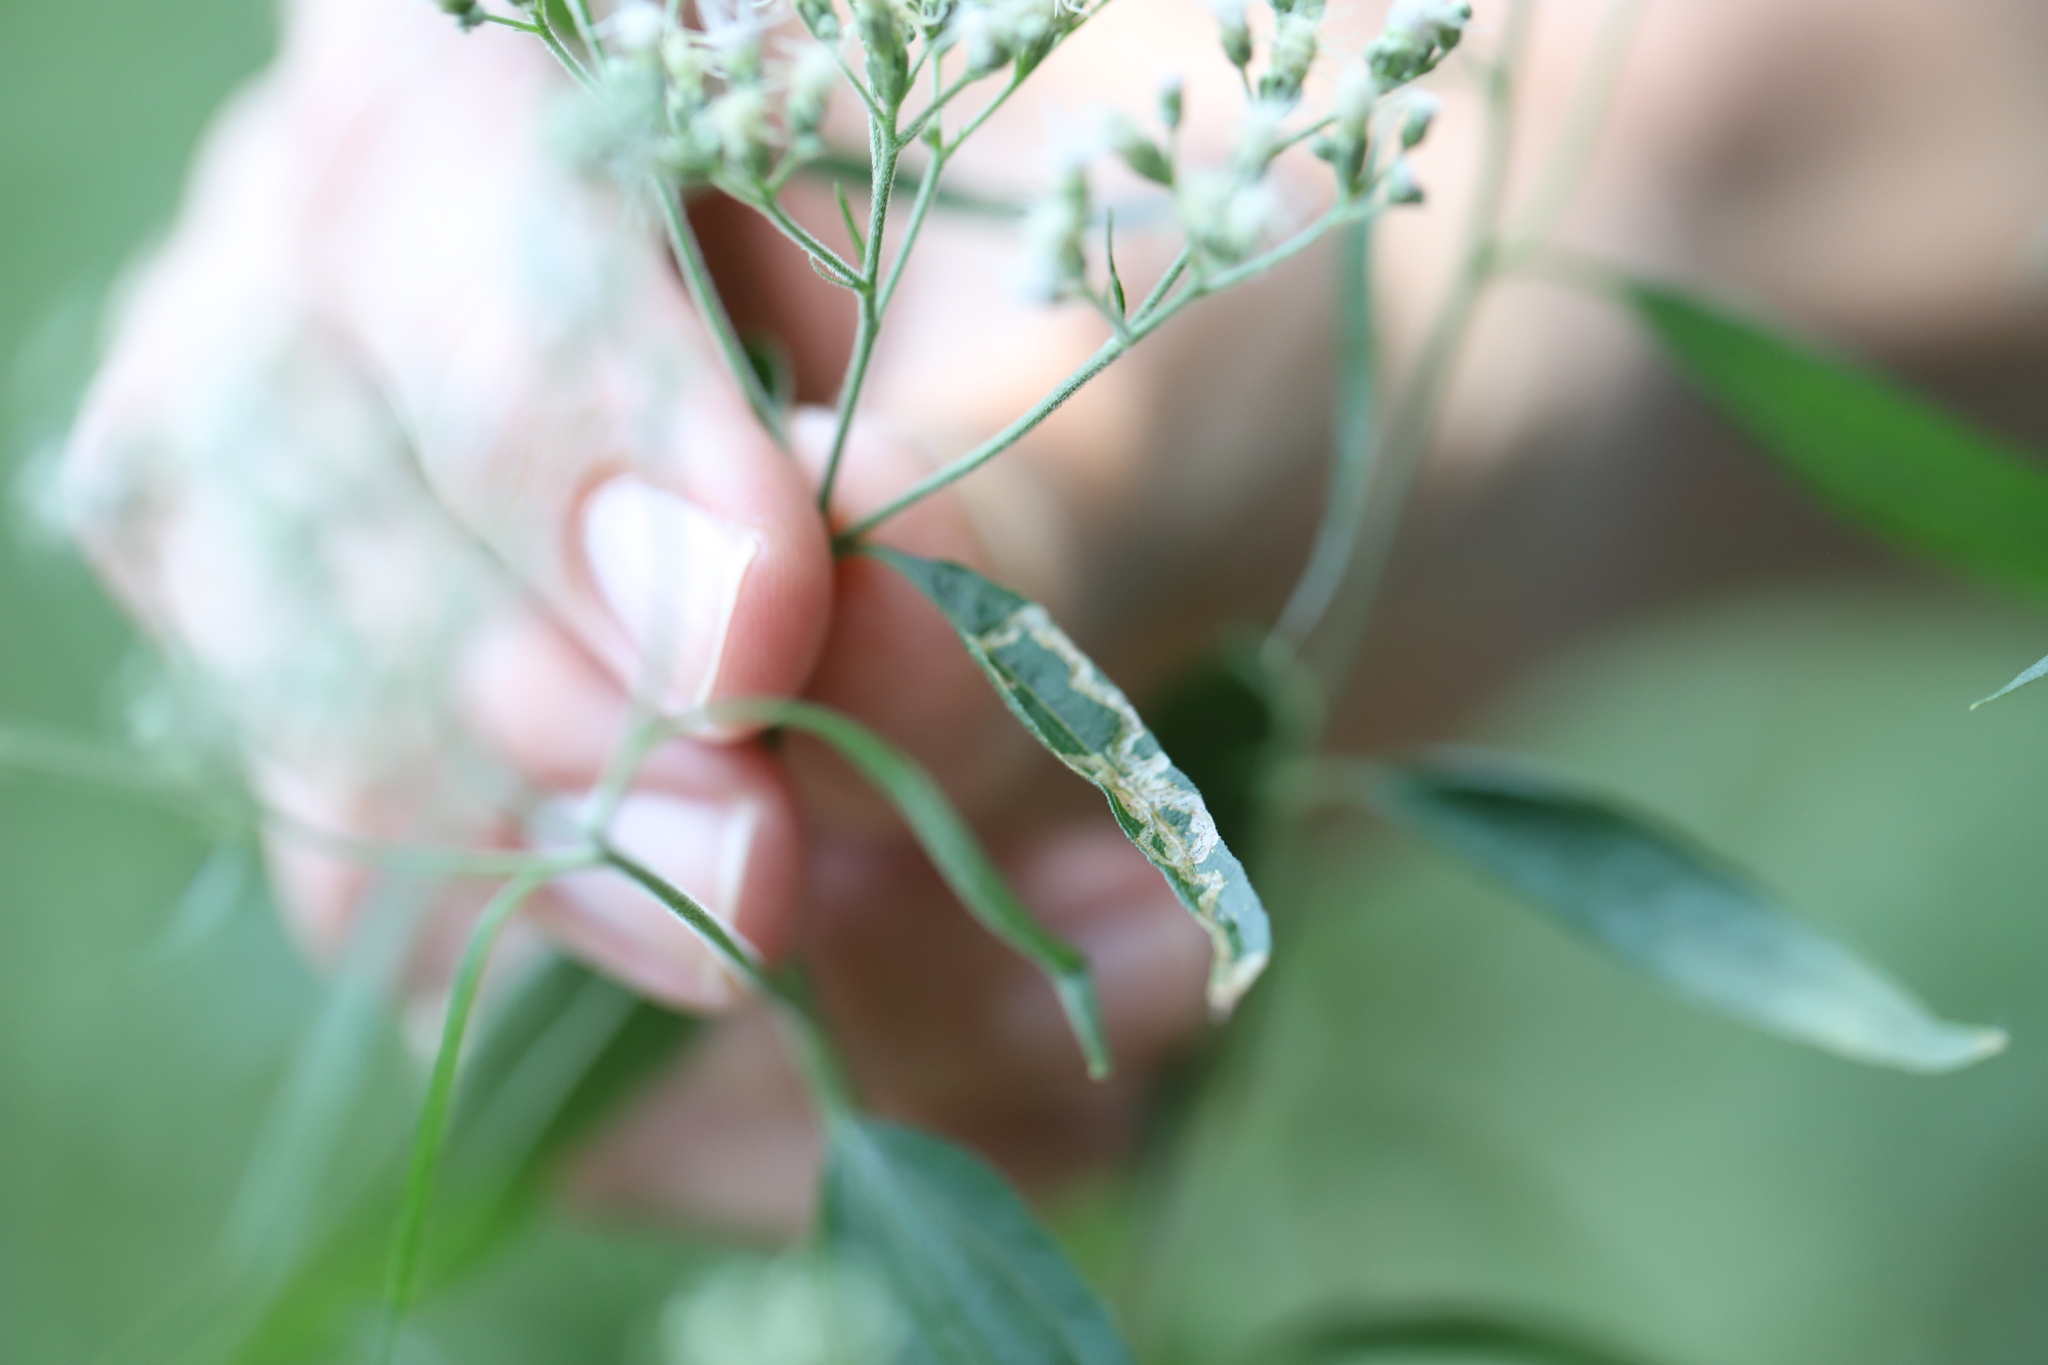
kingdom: Animalia
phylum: Arthropoda
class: Insecta
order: Diptera
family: Agromyzidae
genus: Liriomyza
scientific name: Liriomyza carphephori
